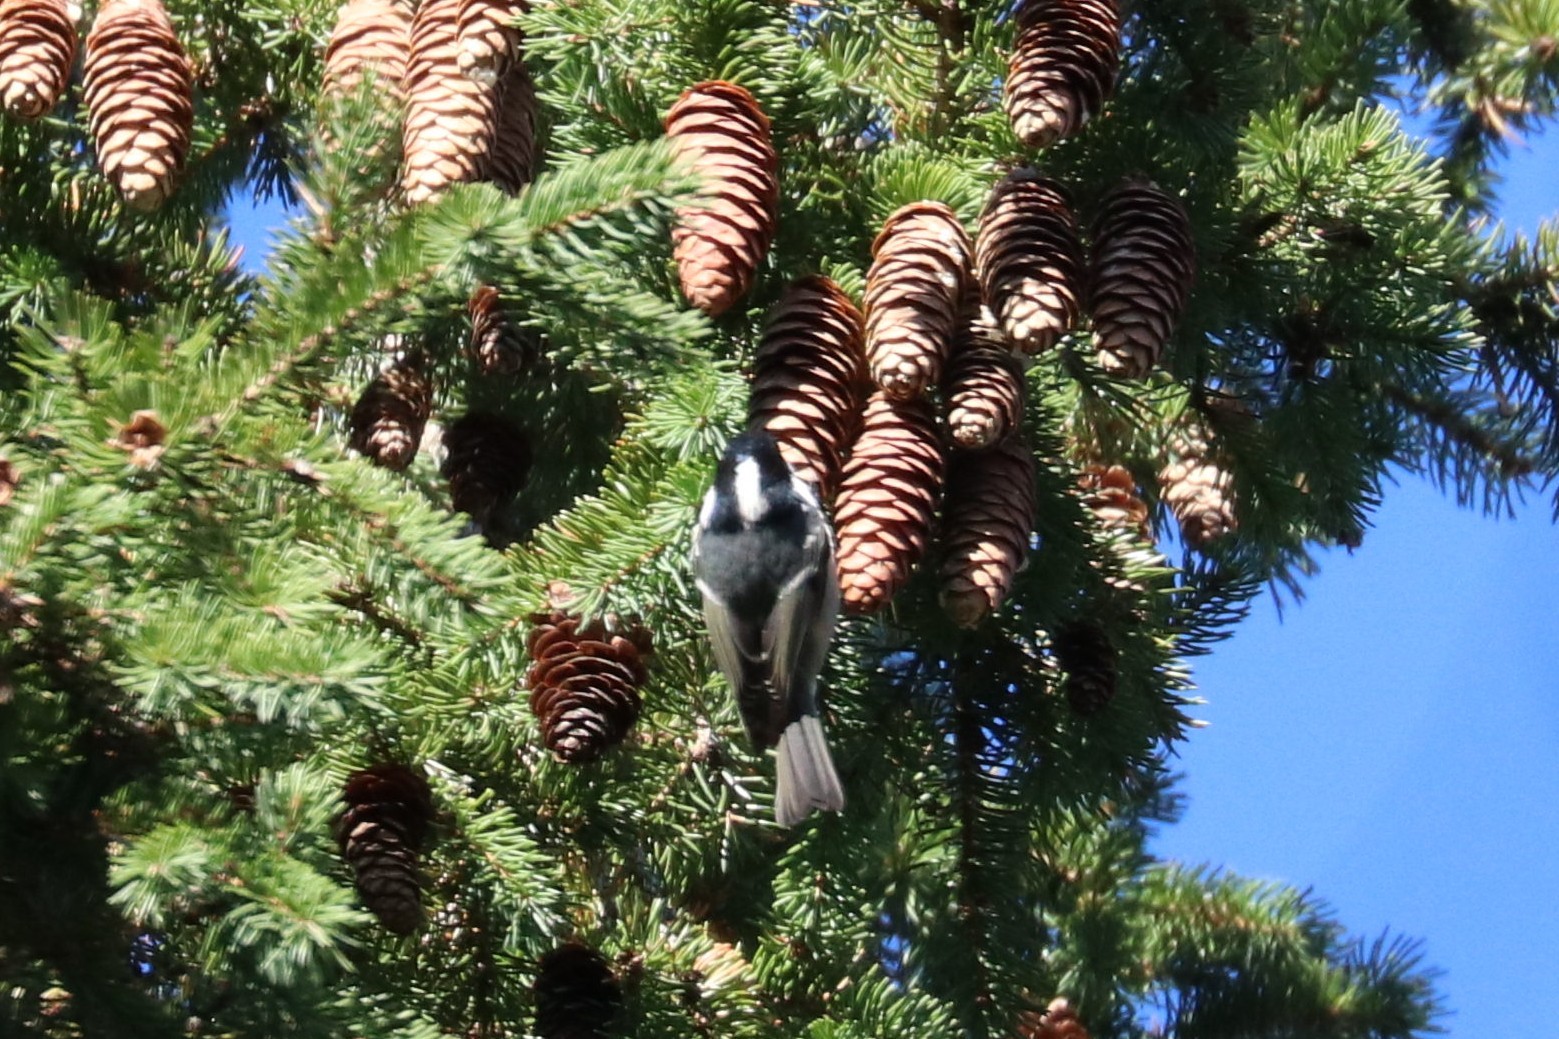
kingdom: Animalia
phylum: Chordata
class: Aves
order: Passeriformes
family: Paridae
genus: Periparus
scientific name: Periparus ater
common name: Coal tit
